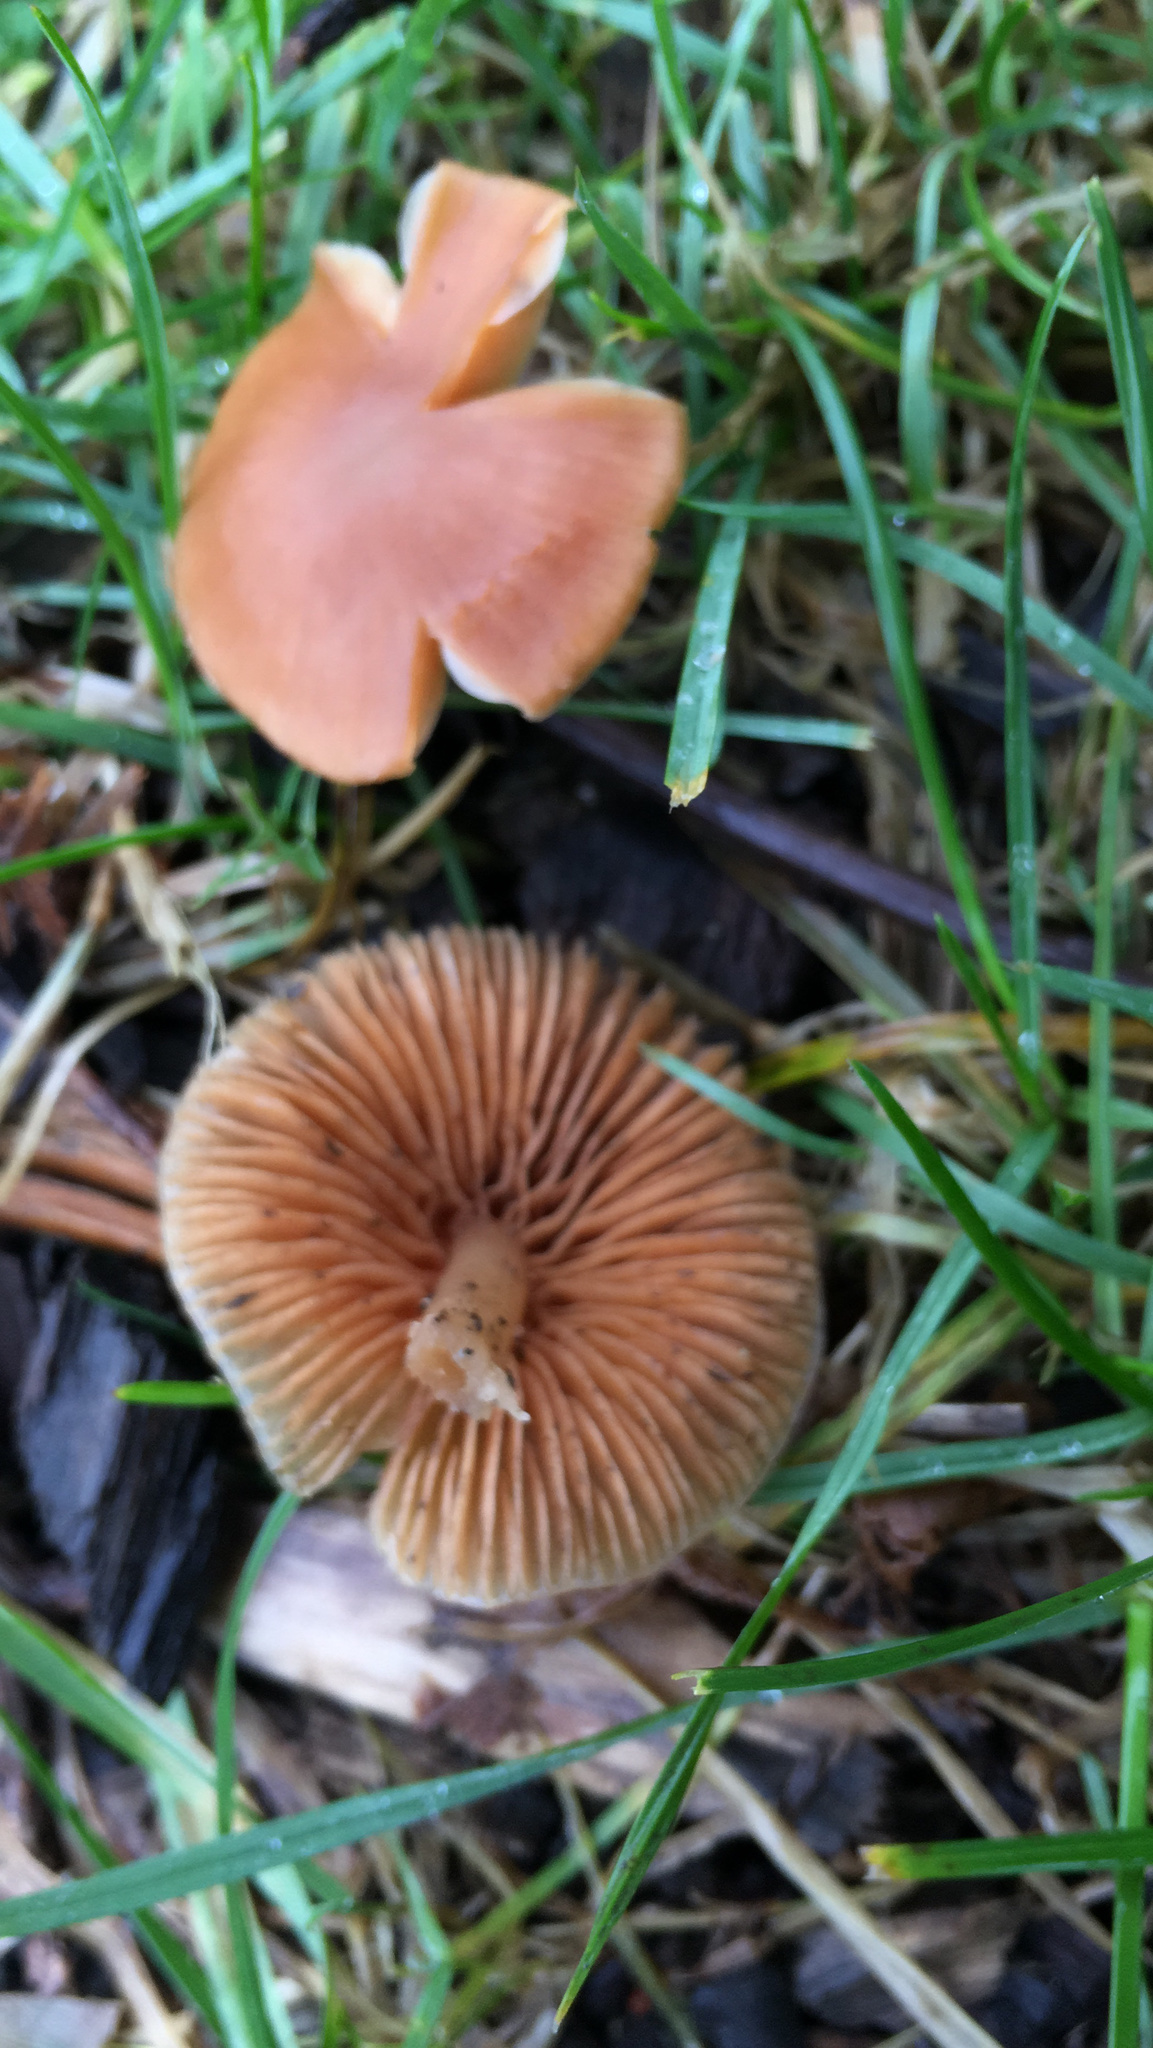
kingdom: Fungi
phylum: Basidiomycota
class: Agaricomycetes
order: Agaricales
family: Bolbitiaceae
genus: Conocybe
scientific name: Conocybe rugosa
